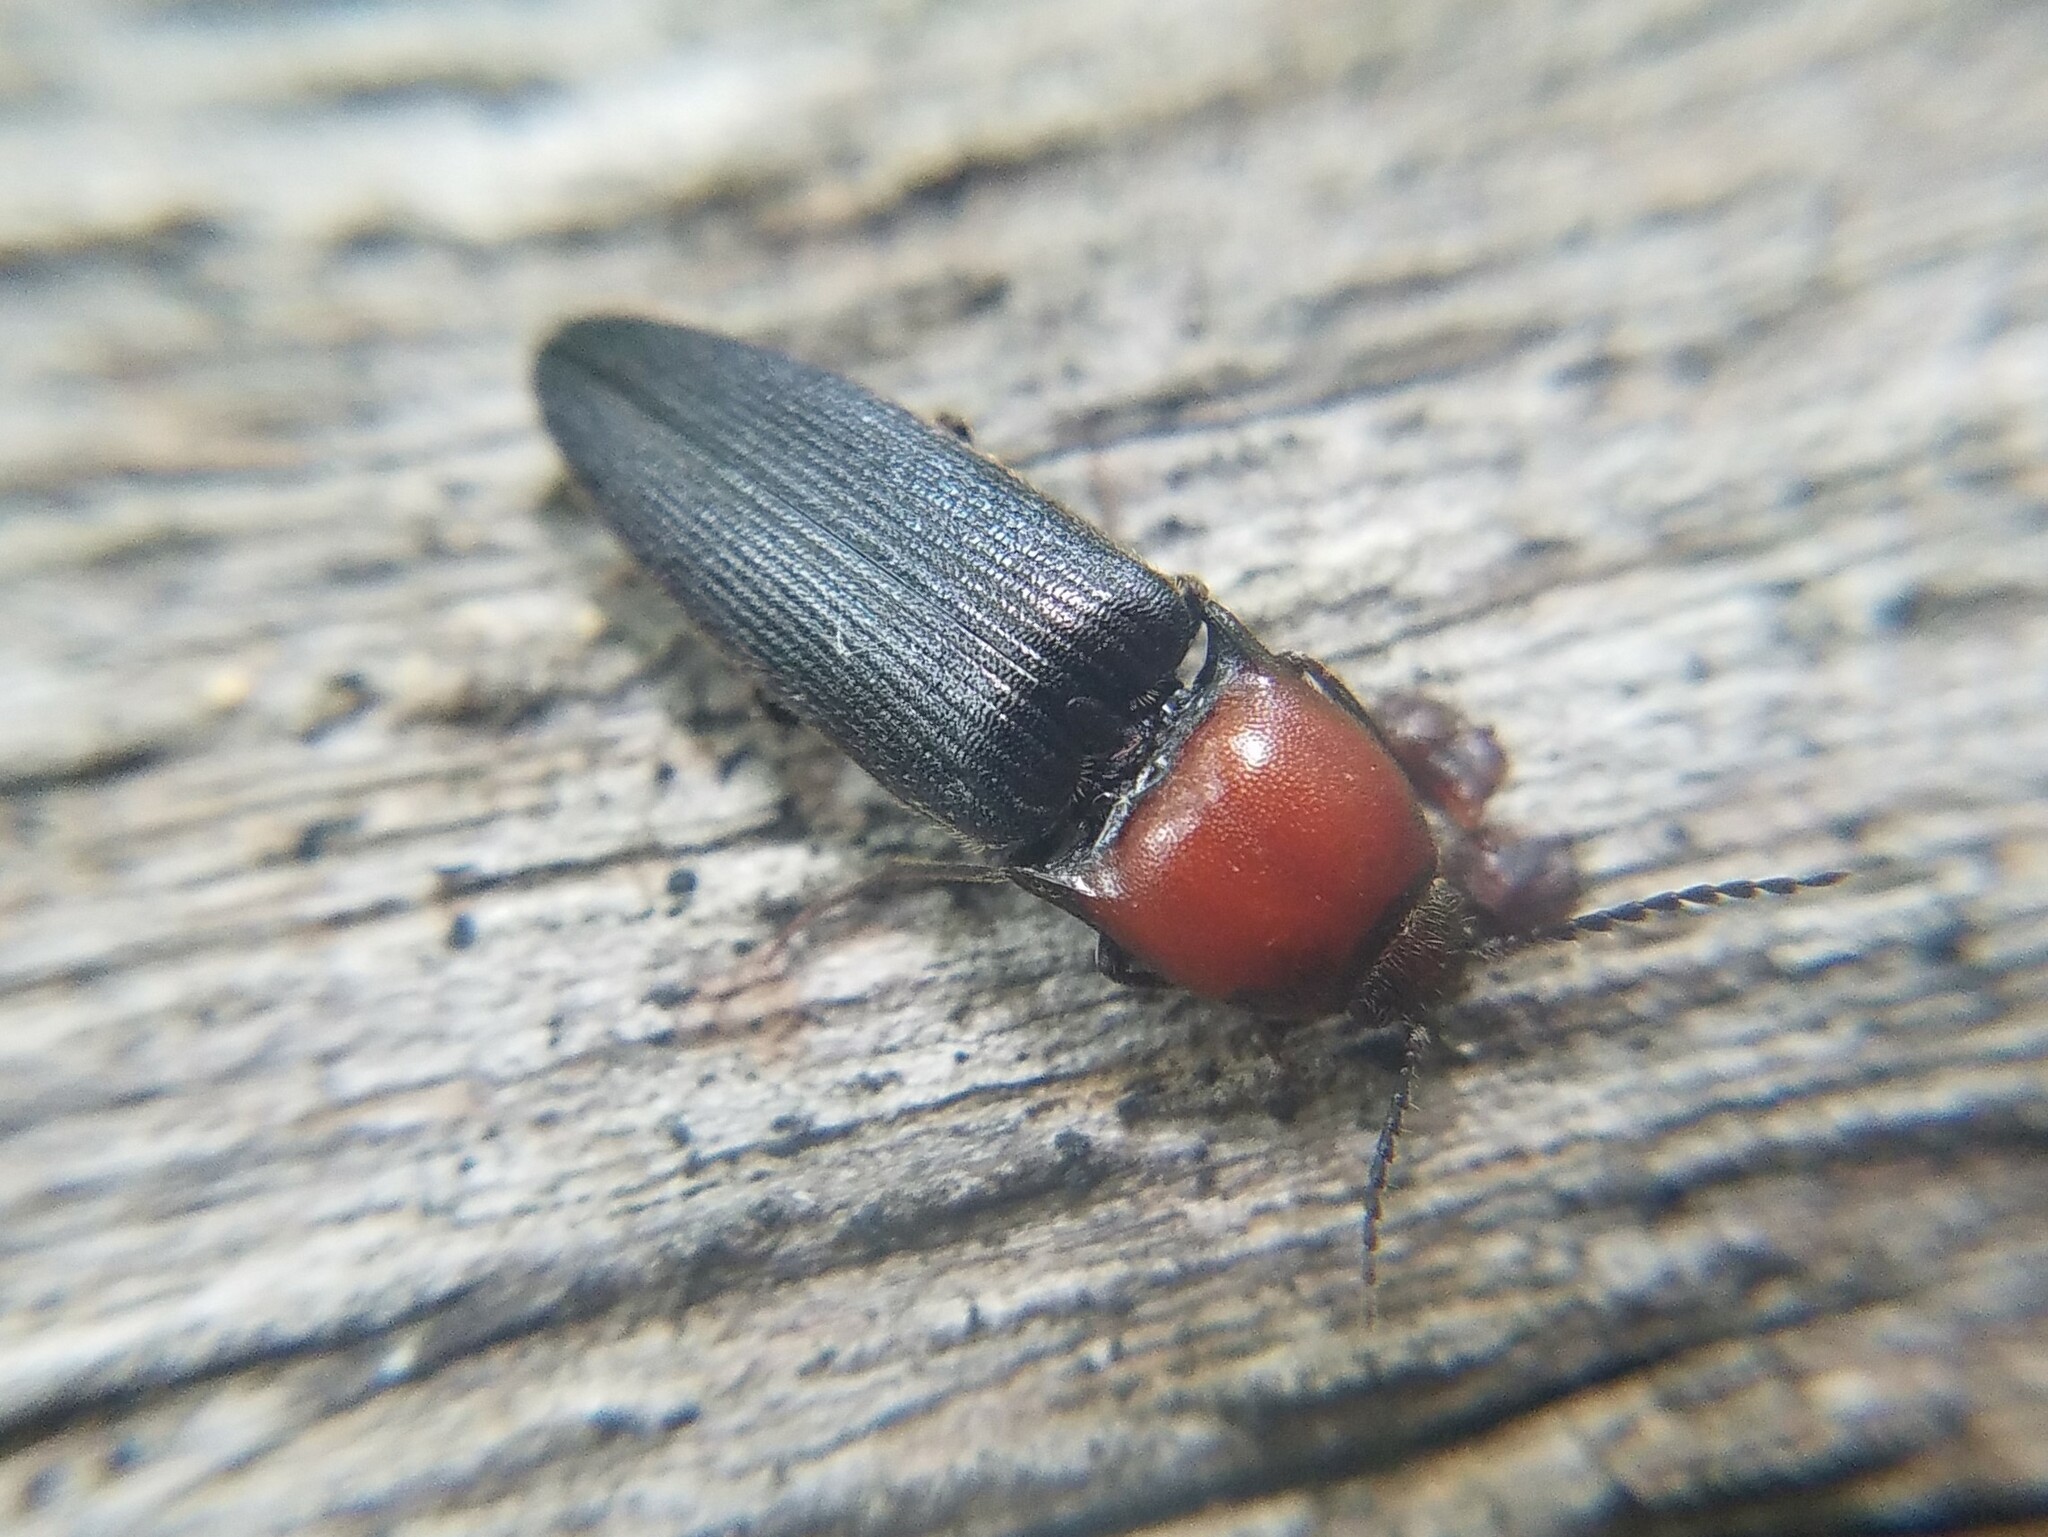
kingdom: Animalia
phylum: Arthropoda
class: Insecta
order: Coleoptera
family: Elateridae
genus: Ampedus
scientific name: Ampedus rubricollis
